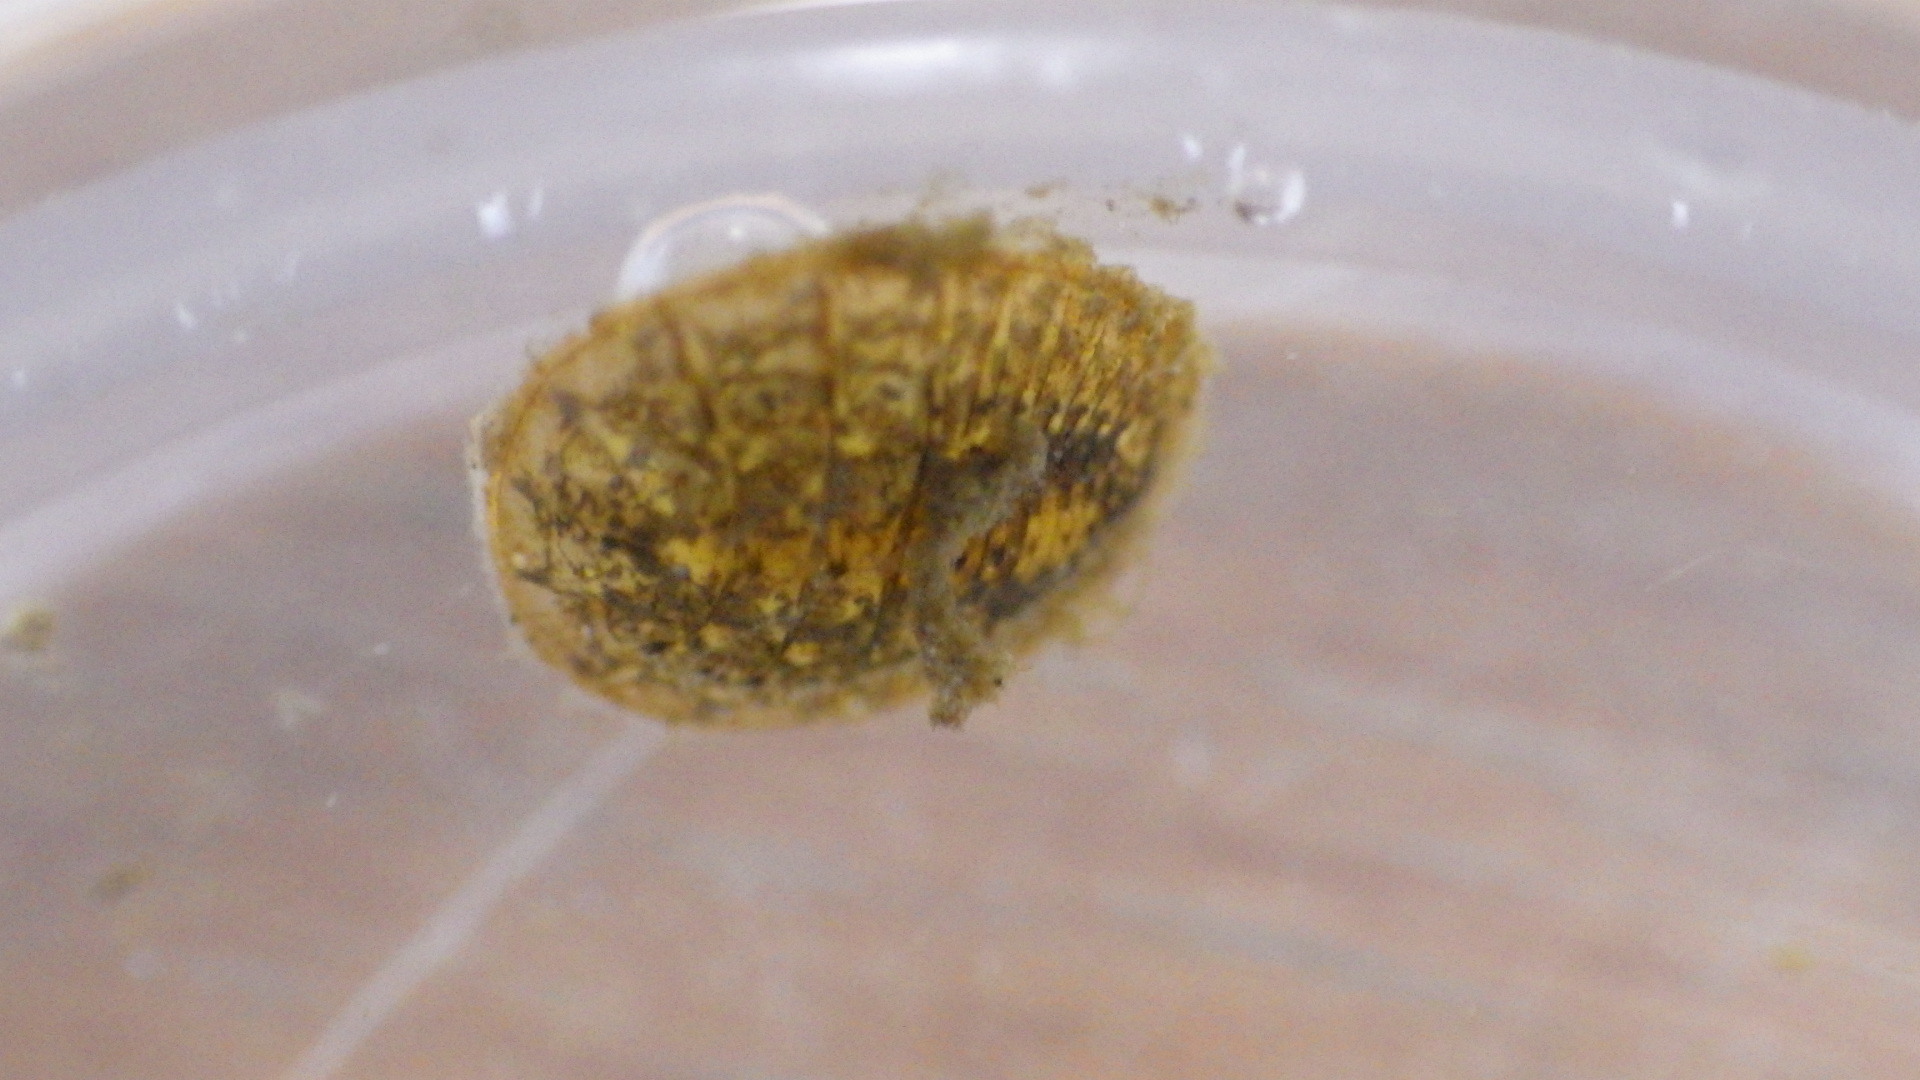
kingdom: Animalia
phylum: Arthropoda
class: Insecta
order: Coleoptera
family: Psephenidae
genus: Psephenus
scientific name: Psephenus herricki
